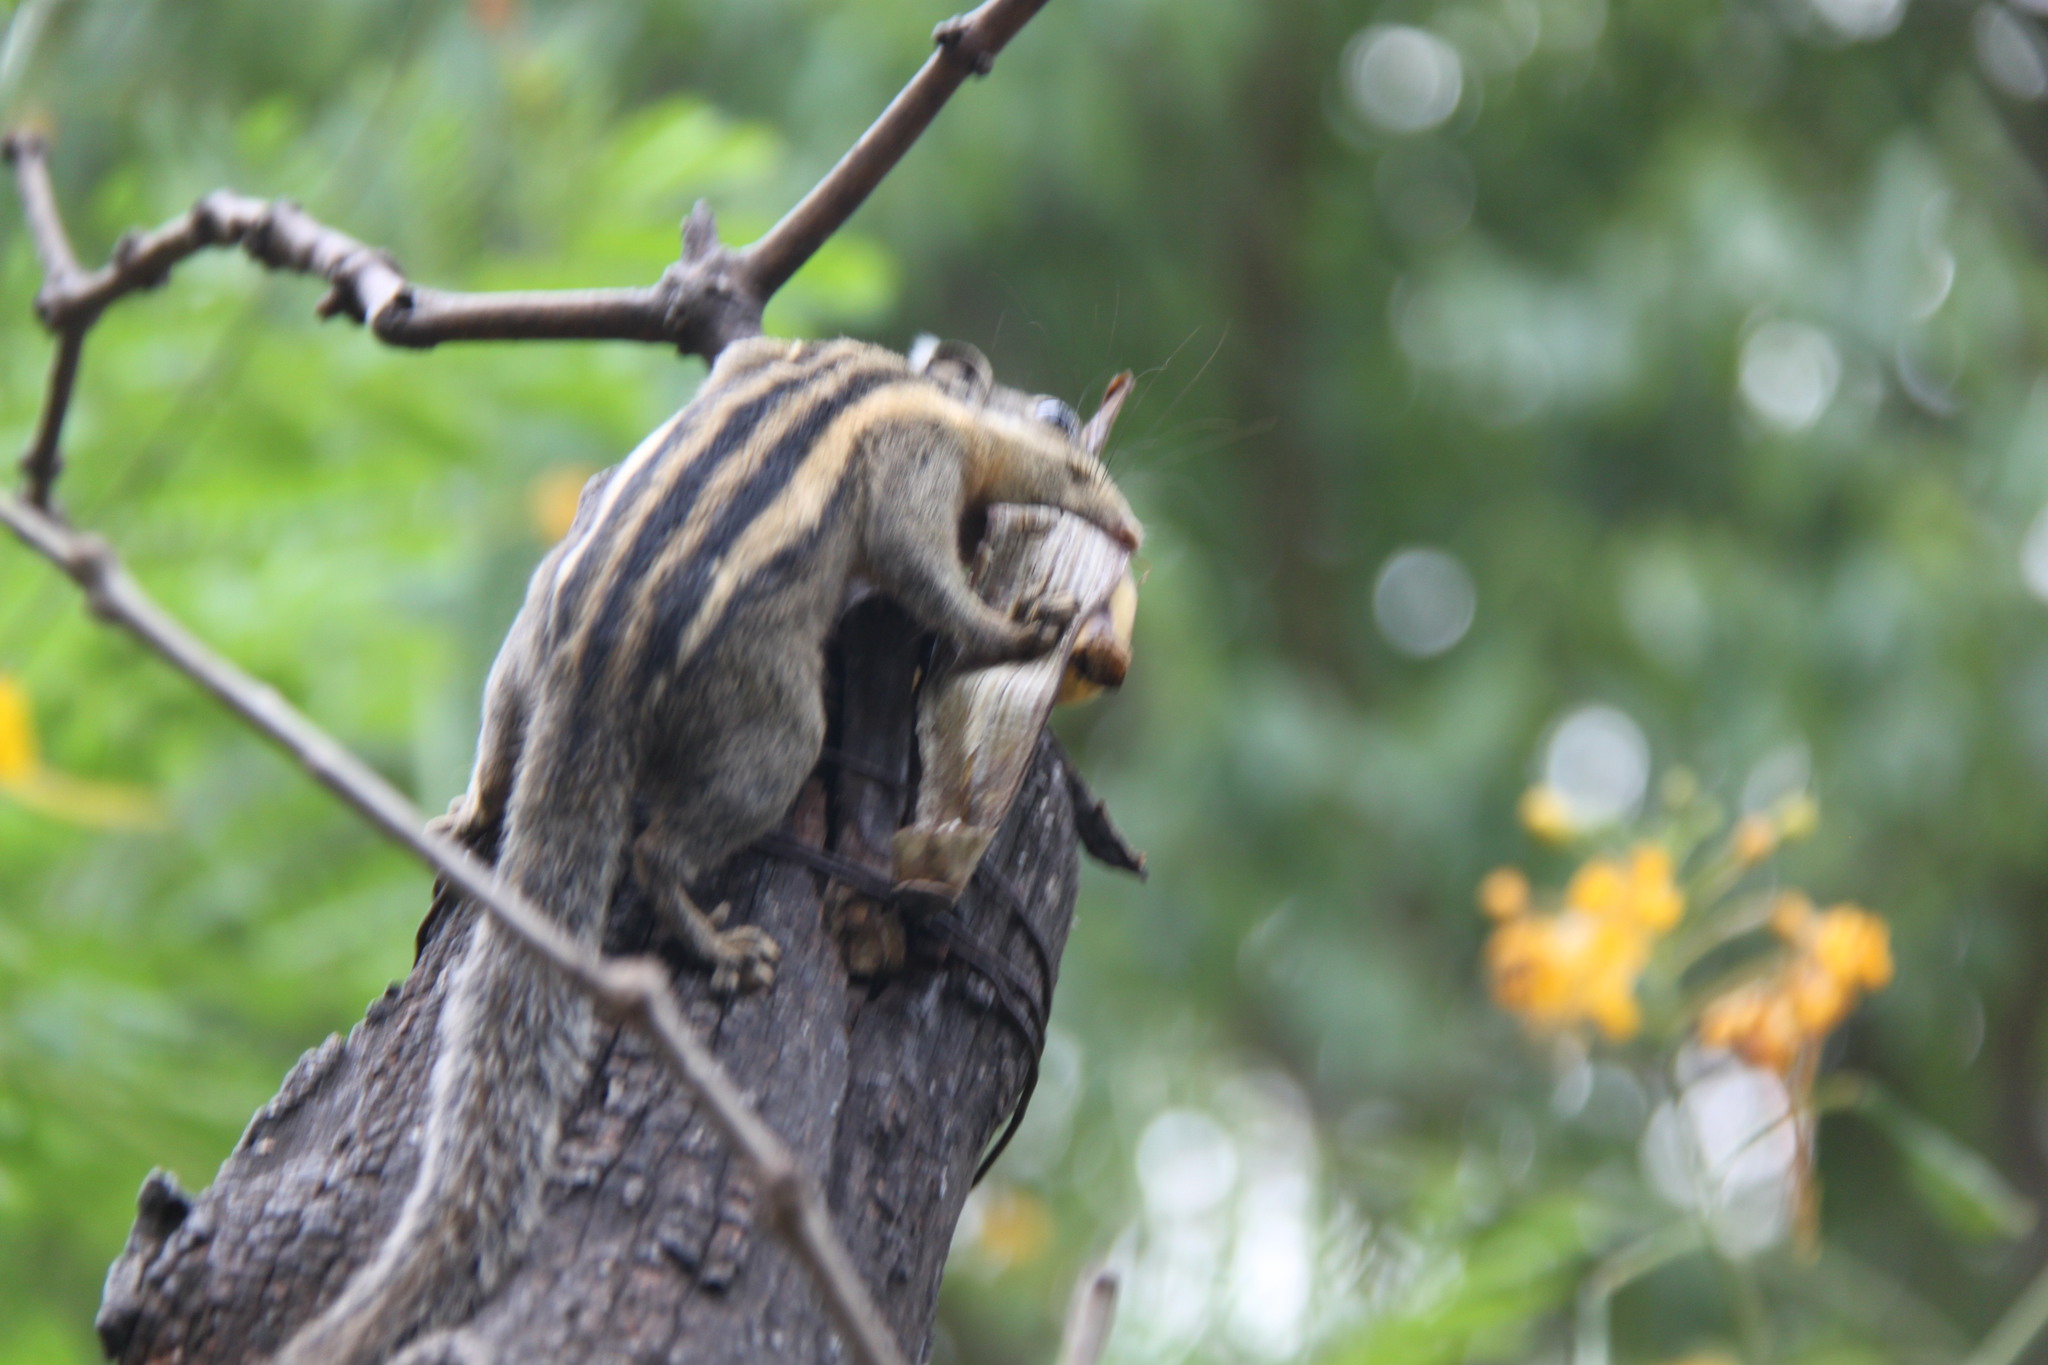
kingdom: Animalia
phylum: Chordata
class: Mammalia
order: Rodentia
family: Sciuridae
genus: Tamiops
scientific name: Tamiops mcclellandii
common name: Himalayan striped squirrel
